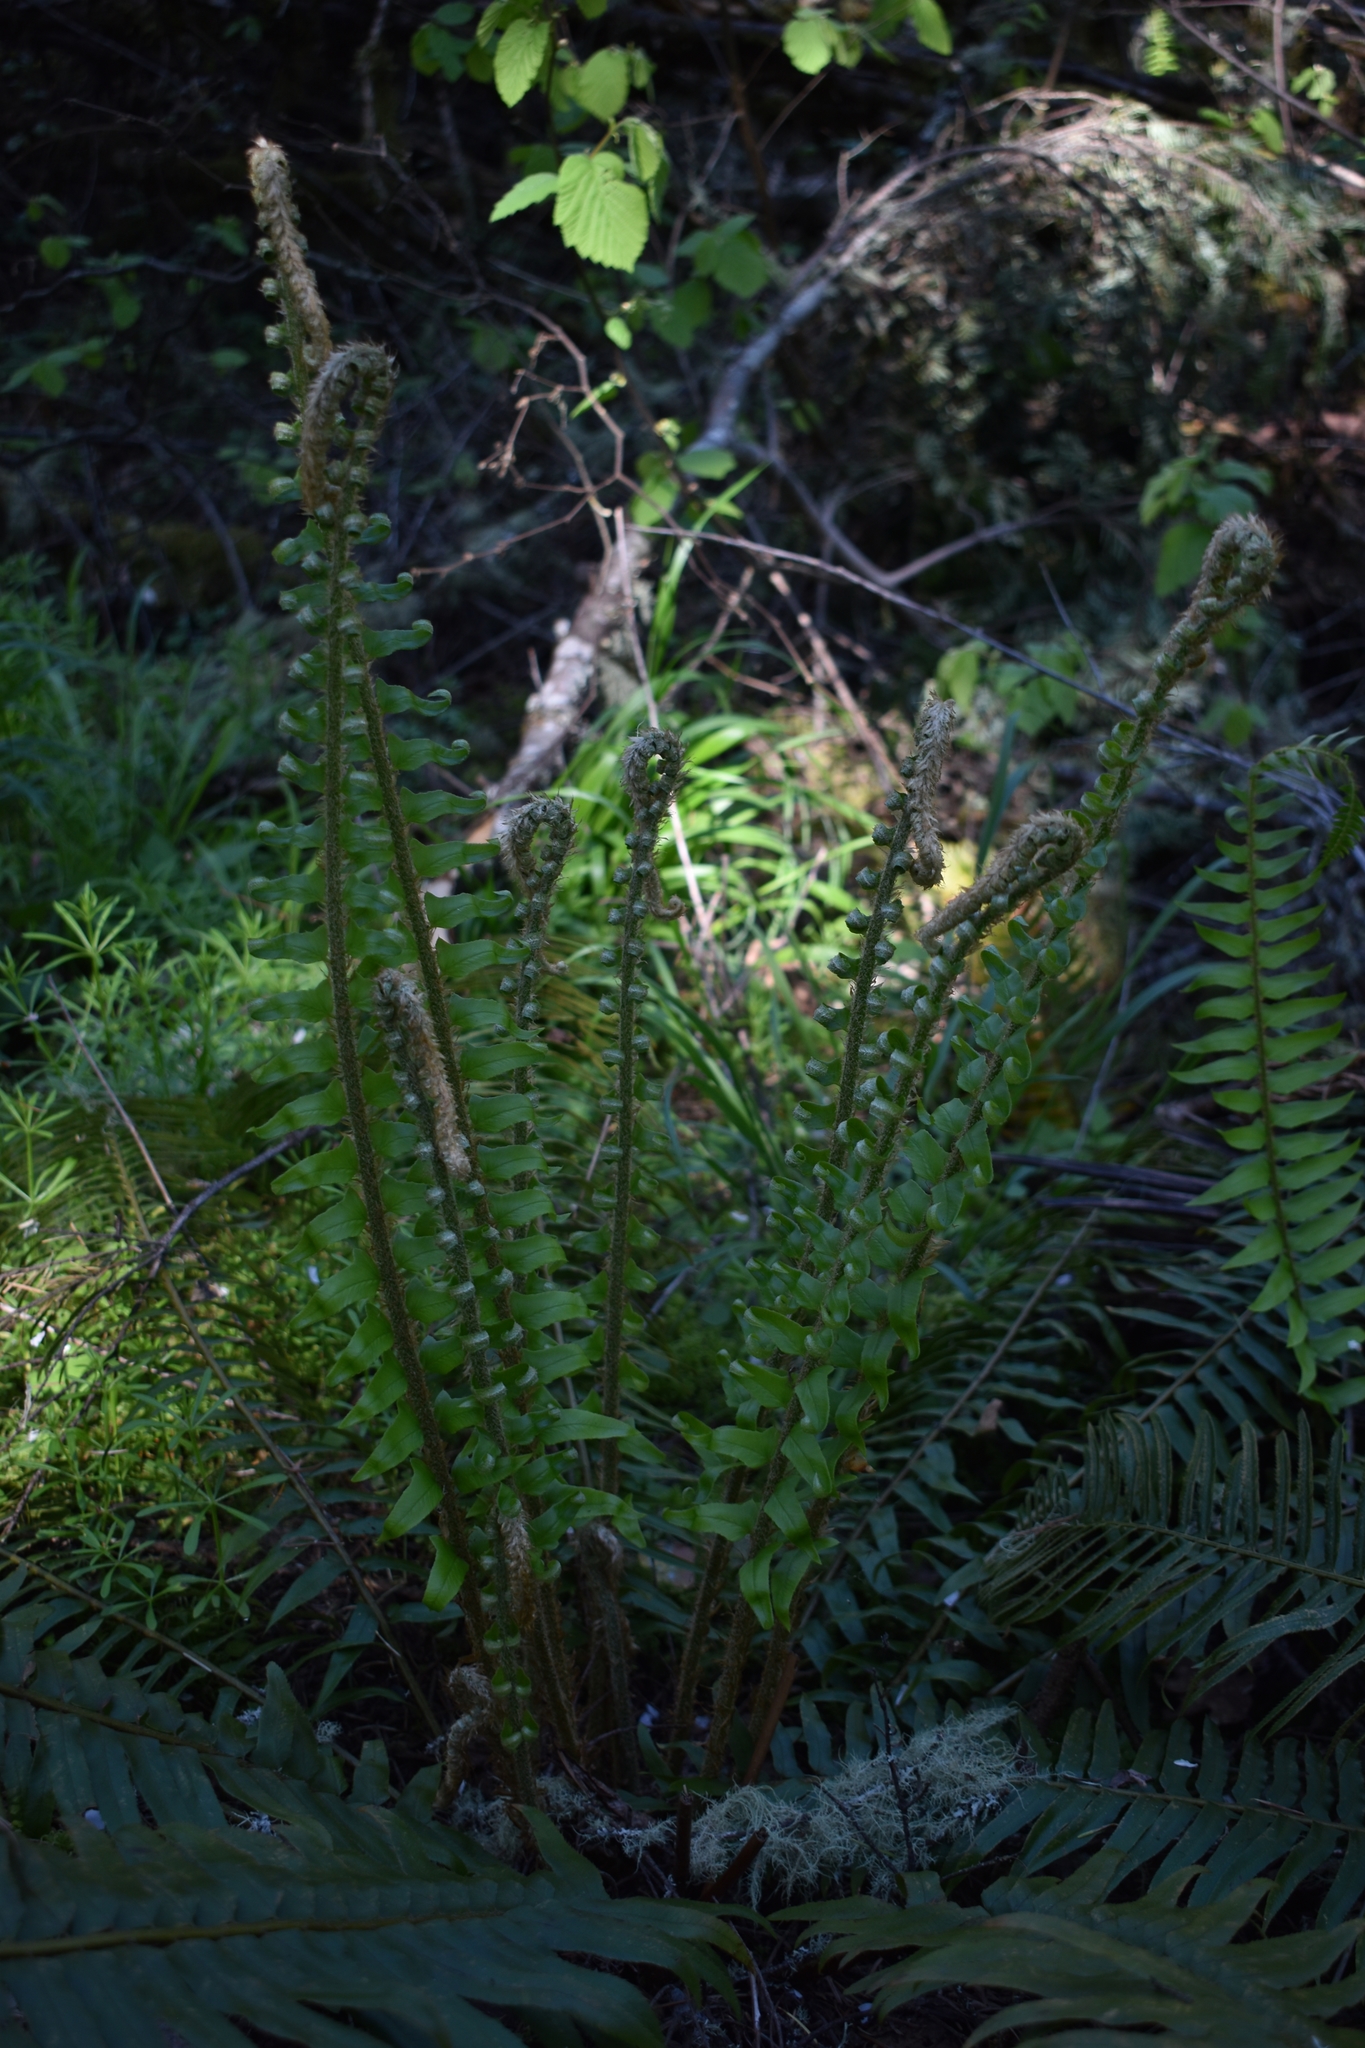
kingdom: Plantae
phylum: Tracheophyta
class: Polypodiopsida
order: Polypodiales
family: Dryopteridaceae
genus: Polystichum
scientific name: Polystichum munitum
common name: Western sword-fern
